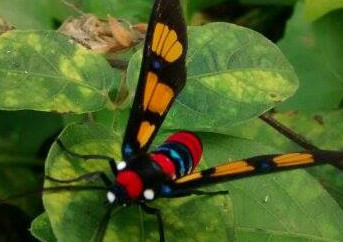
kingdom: Animalia
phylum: Arthropoda
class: Insecta
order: Lepidoptera
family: Erebidae
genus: Euchromia
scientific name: Euchromia polymena
